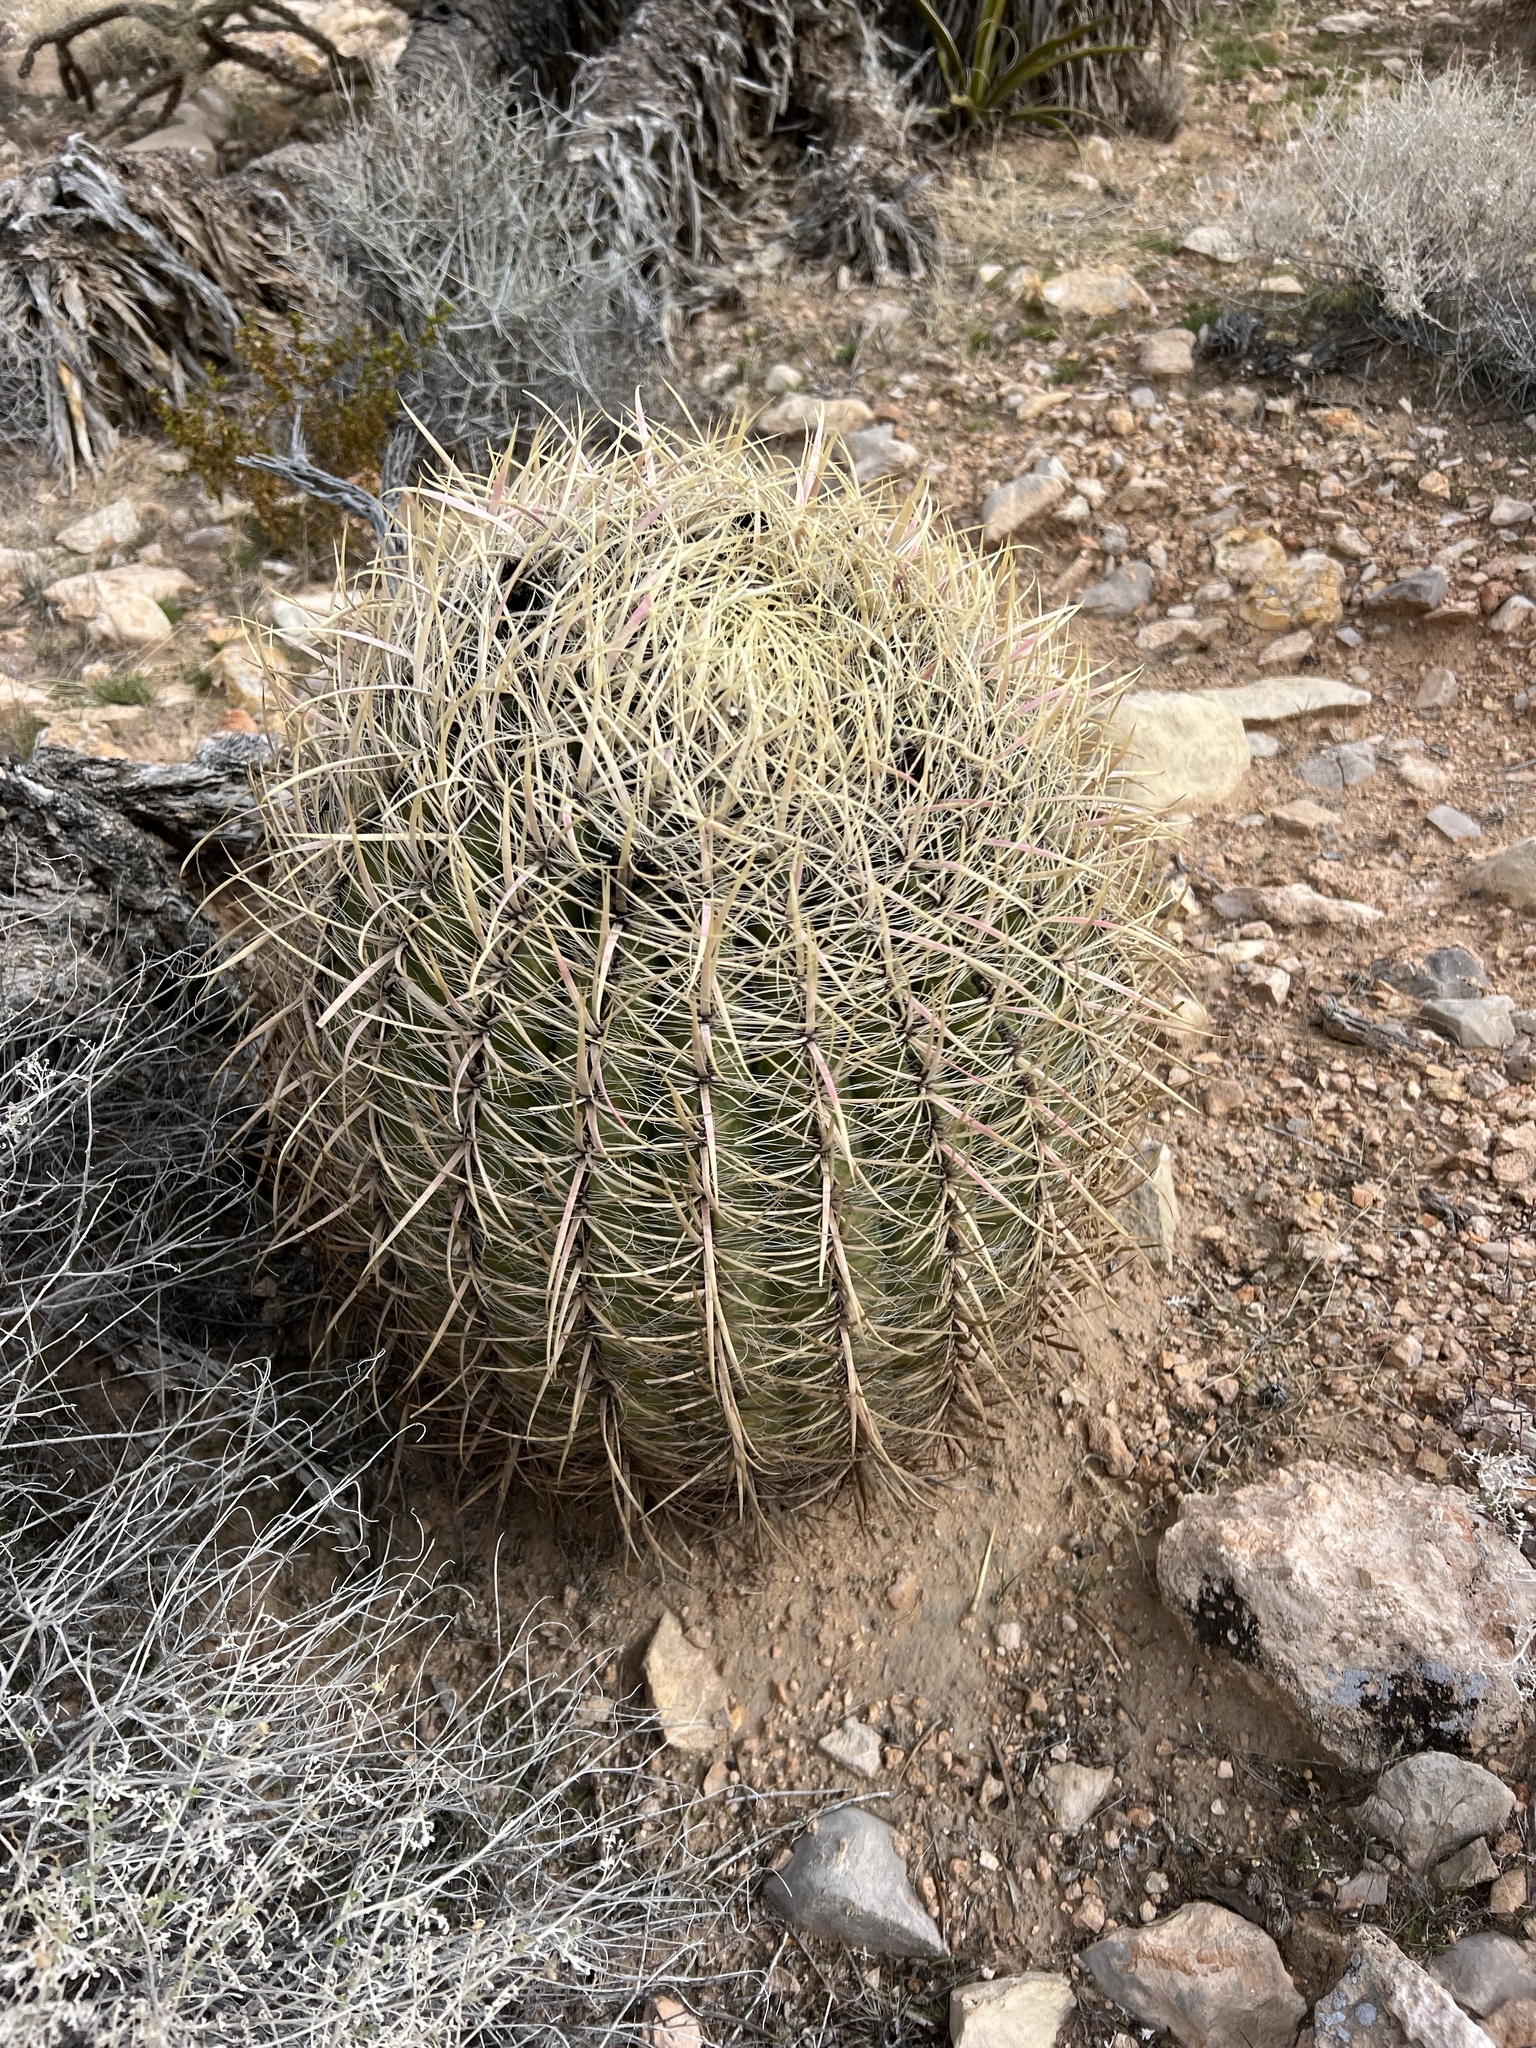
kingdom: Plantae
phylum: Tracheophyta
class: Magnoliopsida
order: Caryophyllales
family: Cactaceae
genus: Ferocactus
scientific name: Ferocactus cylindraceus
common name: California barrel cactus
